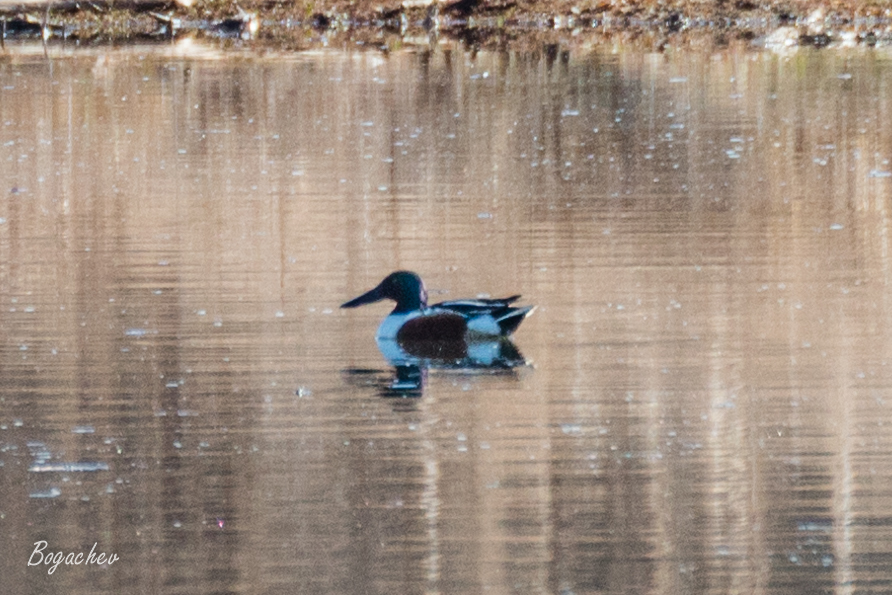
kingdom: Animalia
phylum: Chordata
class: Aves
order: Anseriformes
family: Anatidae
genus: Spatula
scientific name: Spatula clypeata
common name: Northern shoveler
